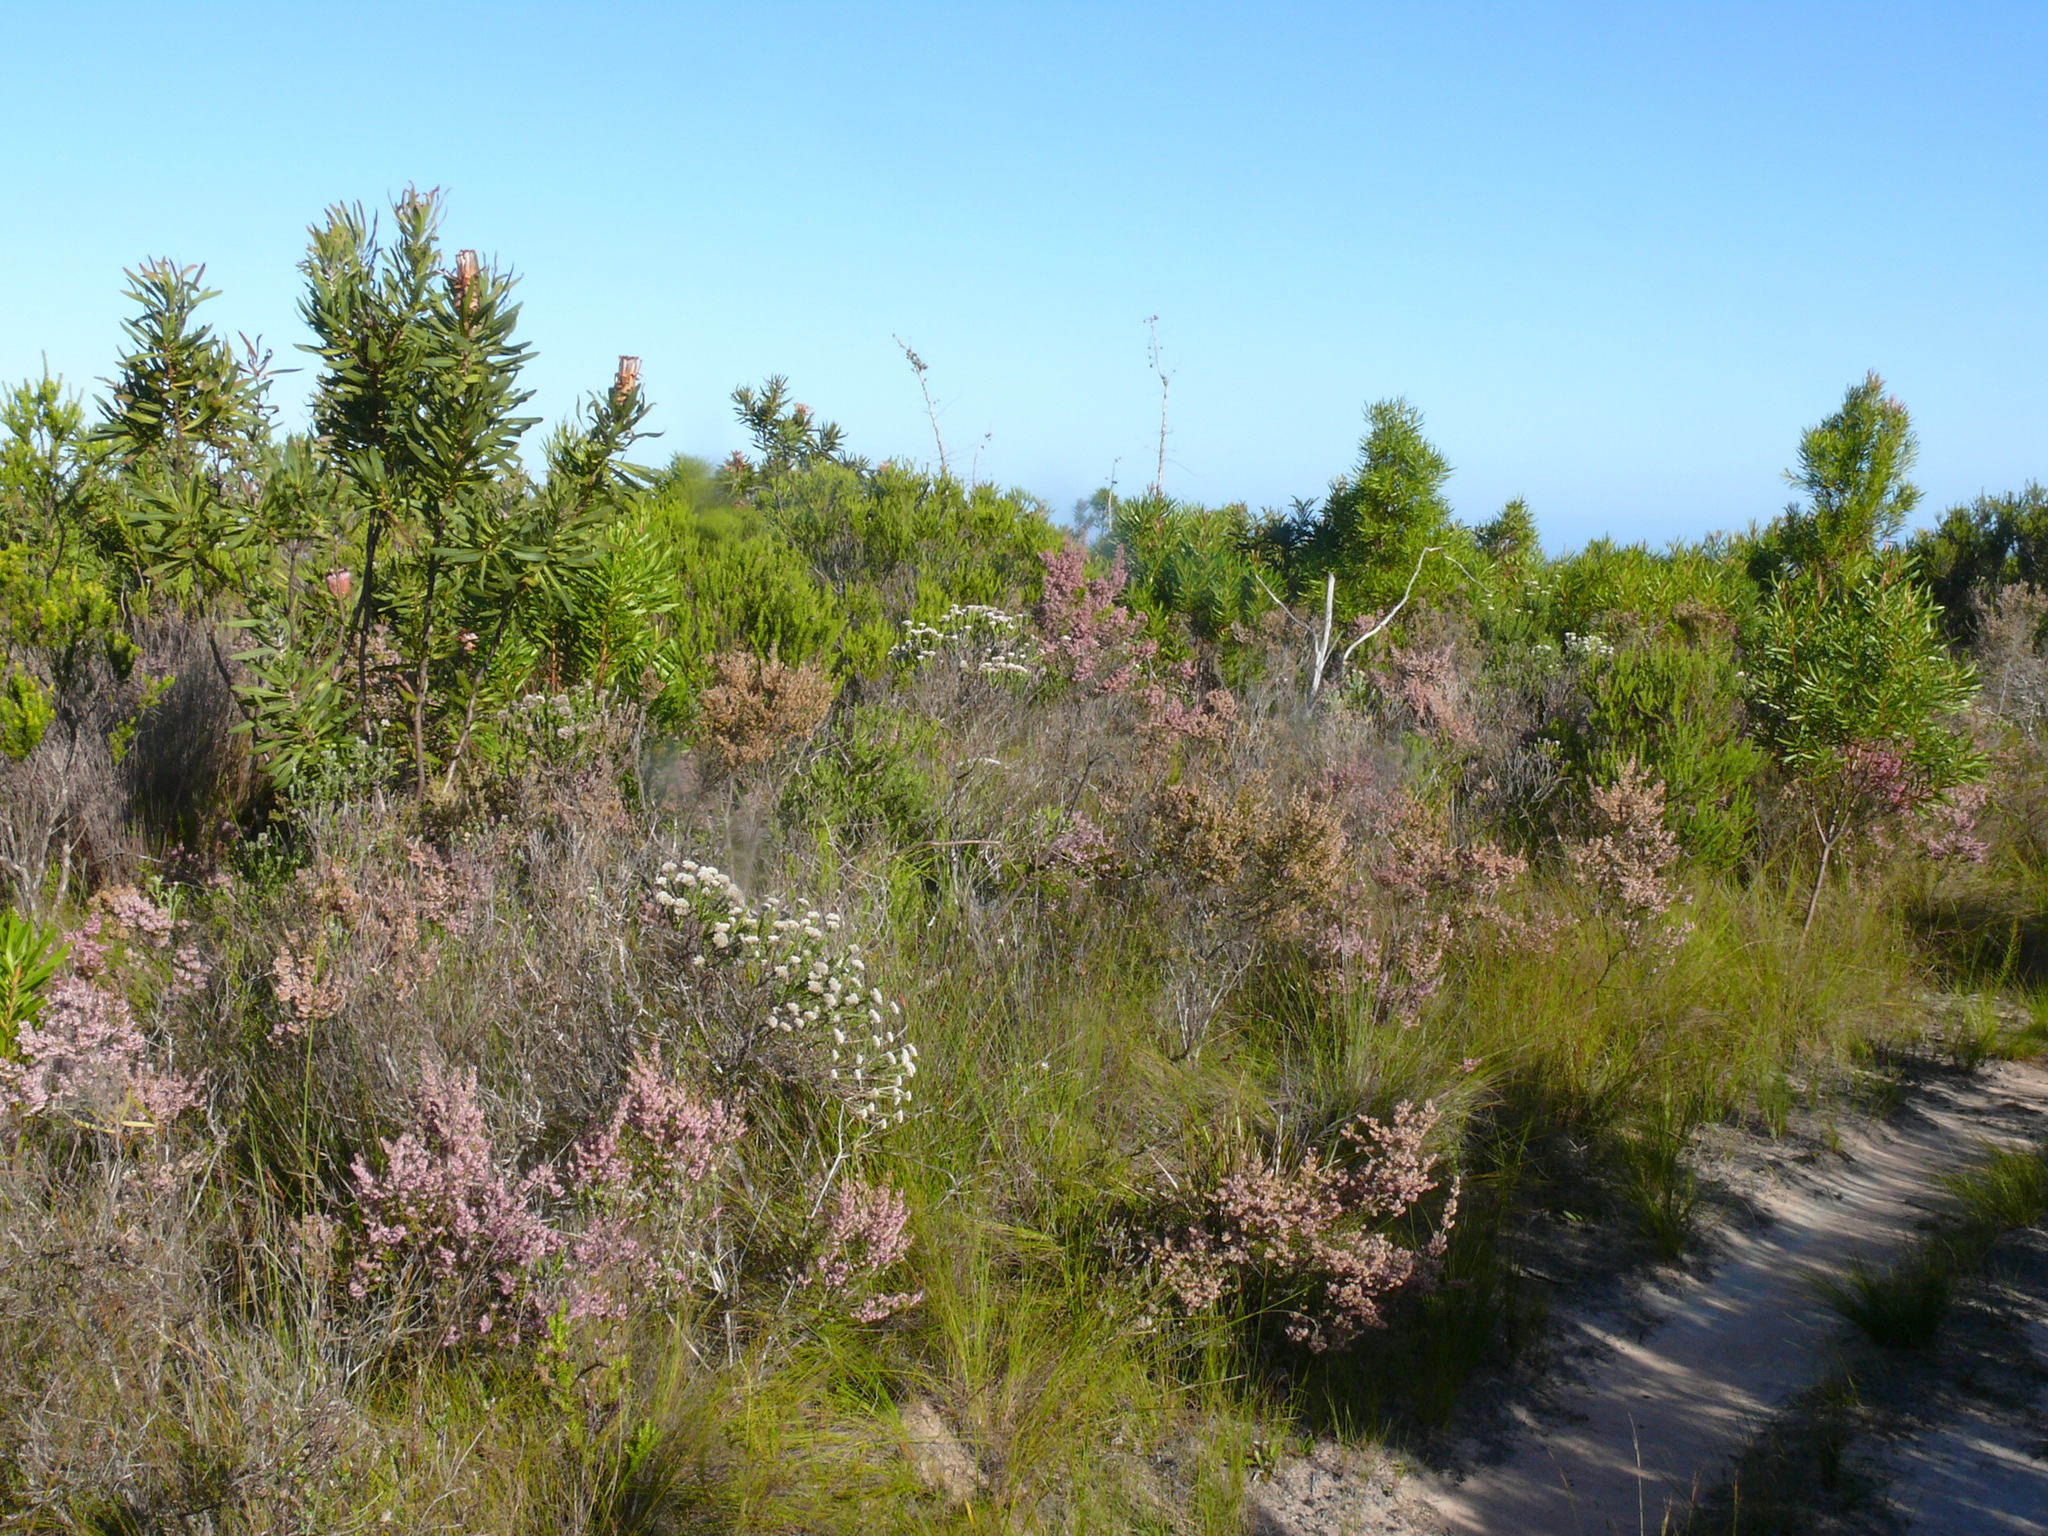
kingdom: Plantae
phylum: Tracheophyta
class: Magnoliopsida
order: Ericales
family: Ericaceae
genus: Erica
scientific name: Erica uberiflora
